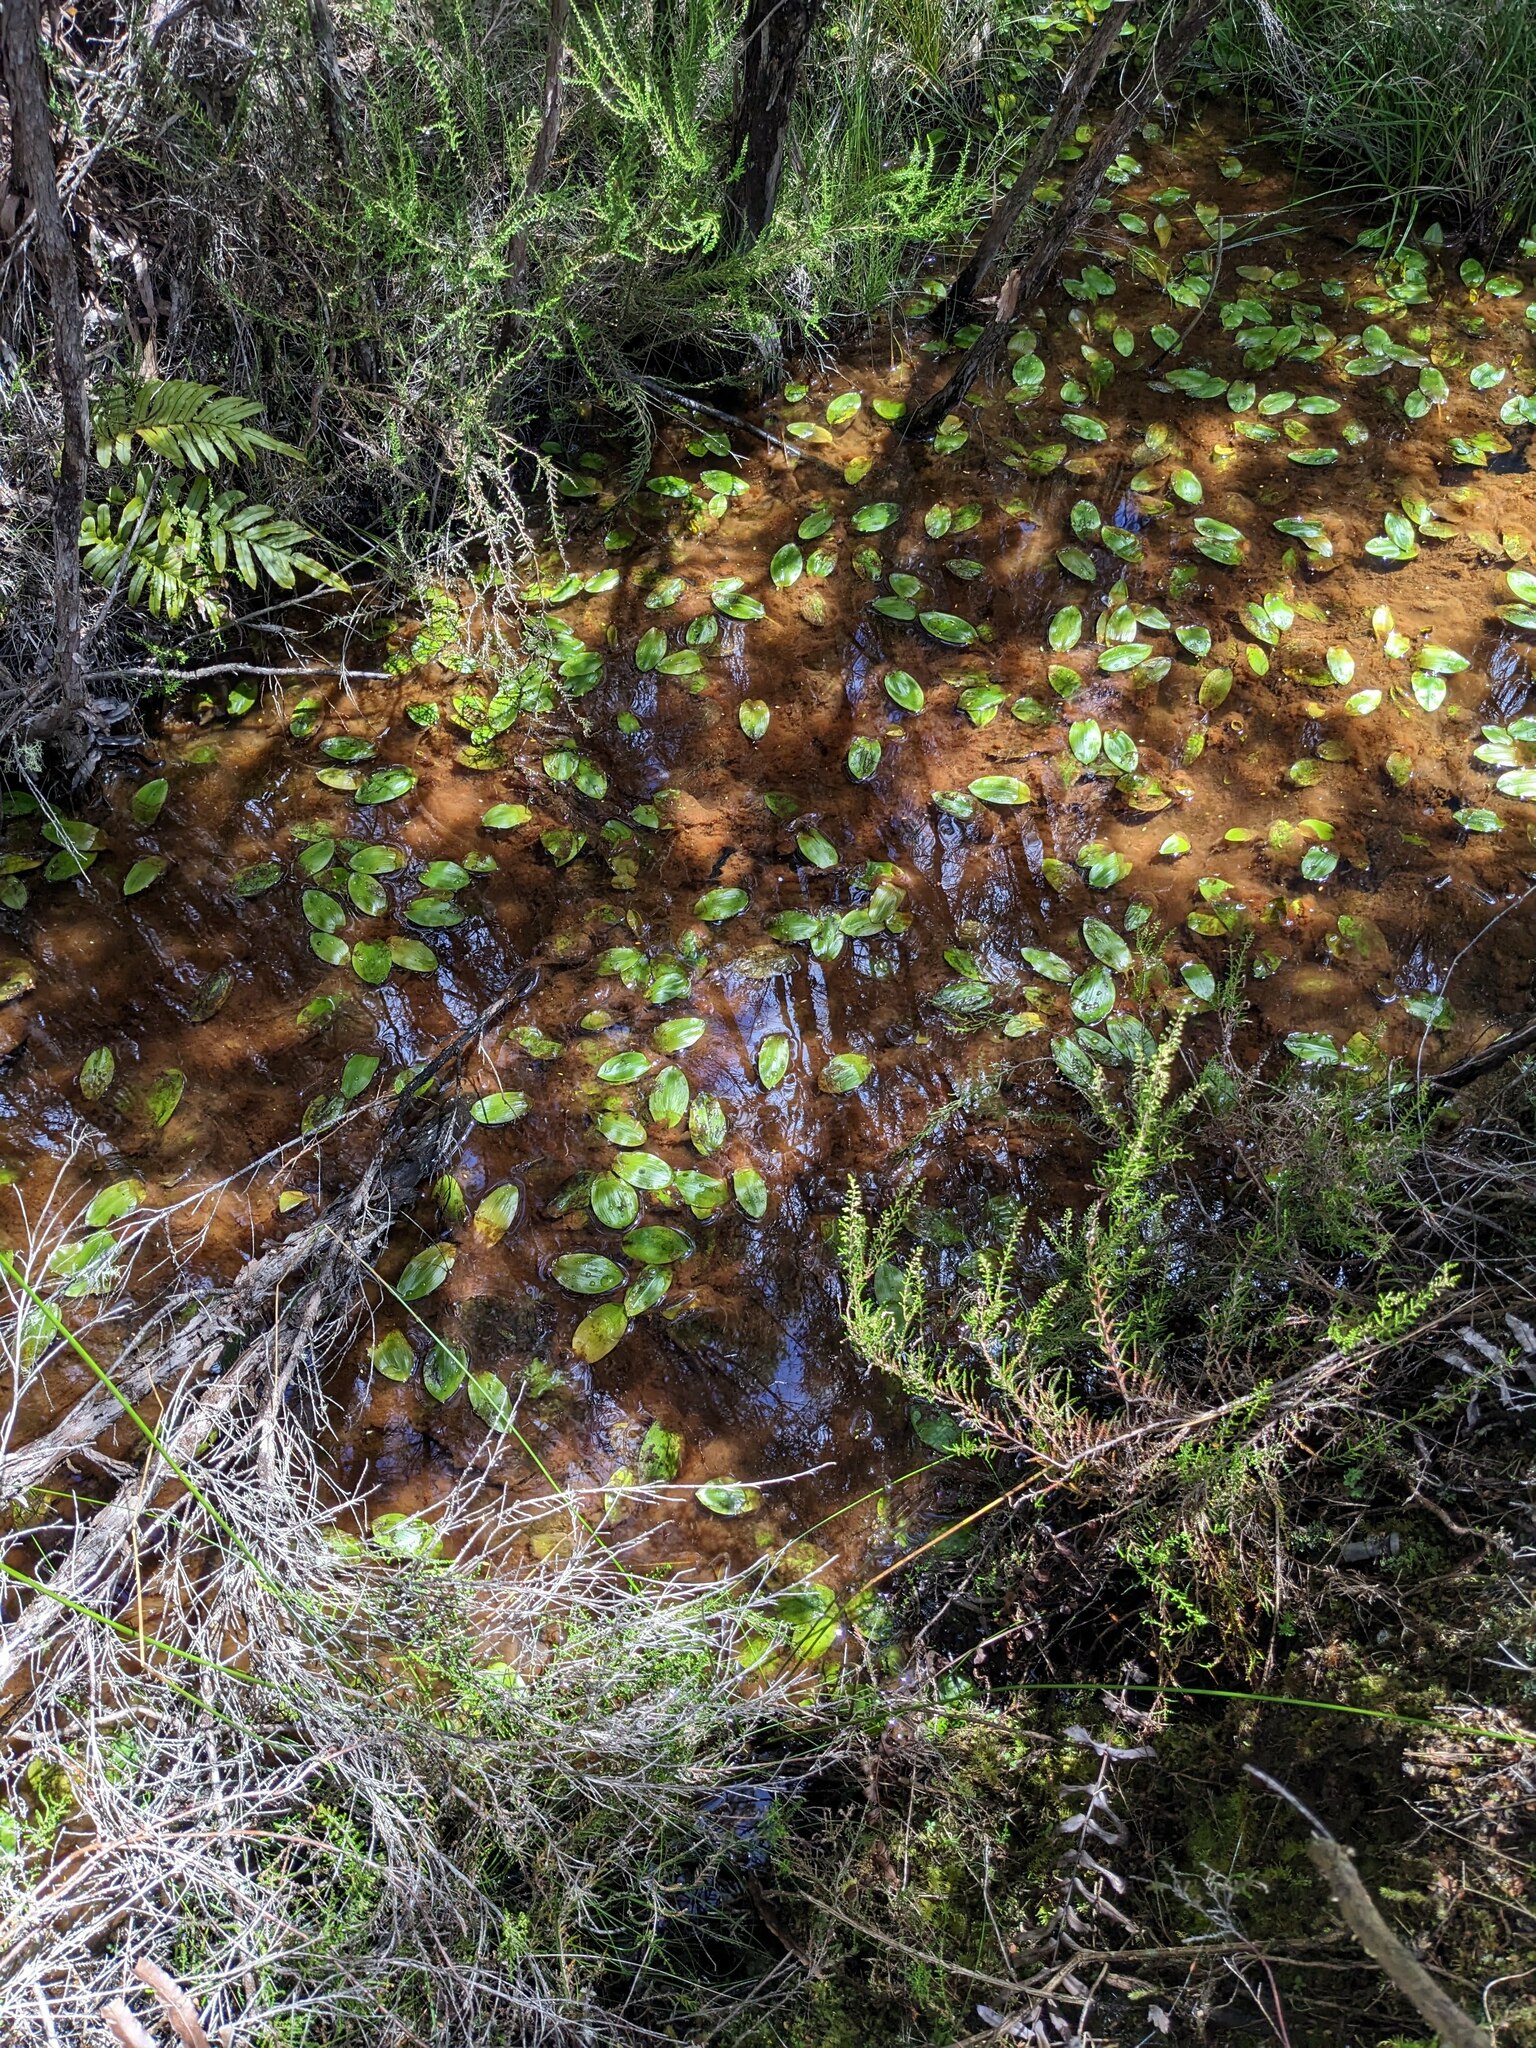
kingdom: Plantae
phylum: Tracheophyta
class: Liliopsida
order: Alismatales
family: Potamogetonaceae
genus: Potamogeton
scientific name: Potamogeton cheesemanii
